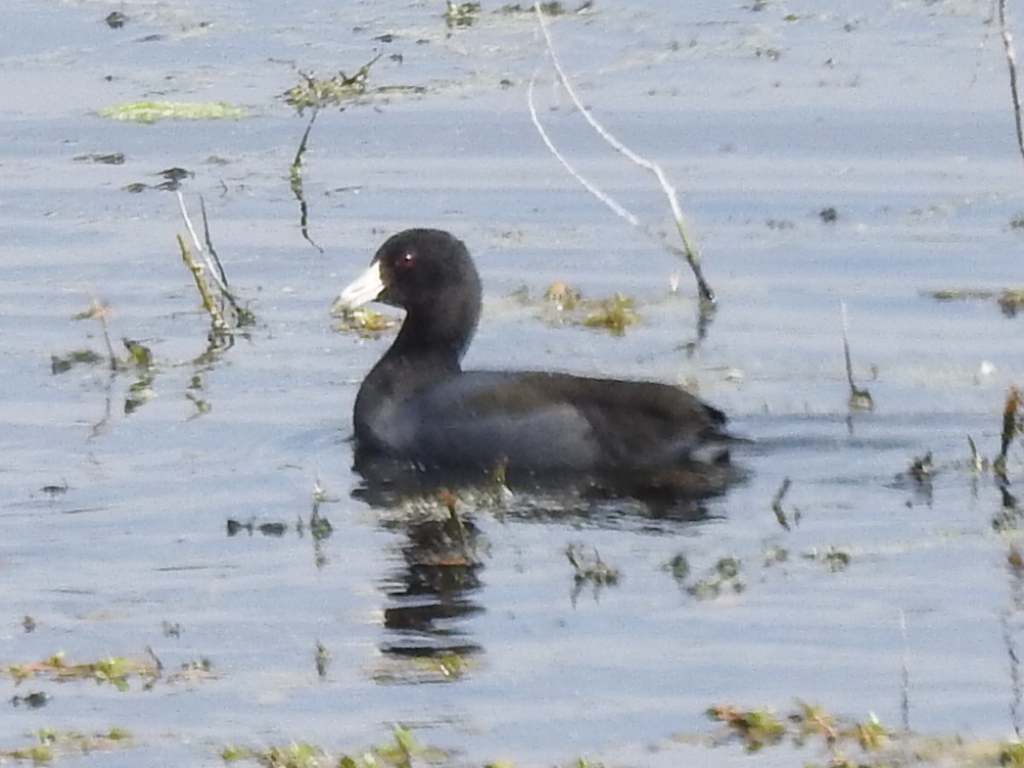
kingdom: Animalia
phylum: Chordata
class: Aves
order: Gruiformes
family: Rallidae
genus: Fulica
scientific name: Fulica americana
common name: American coot
